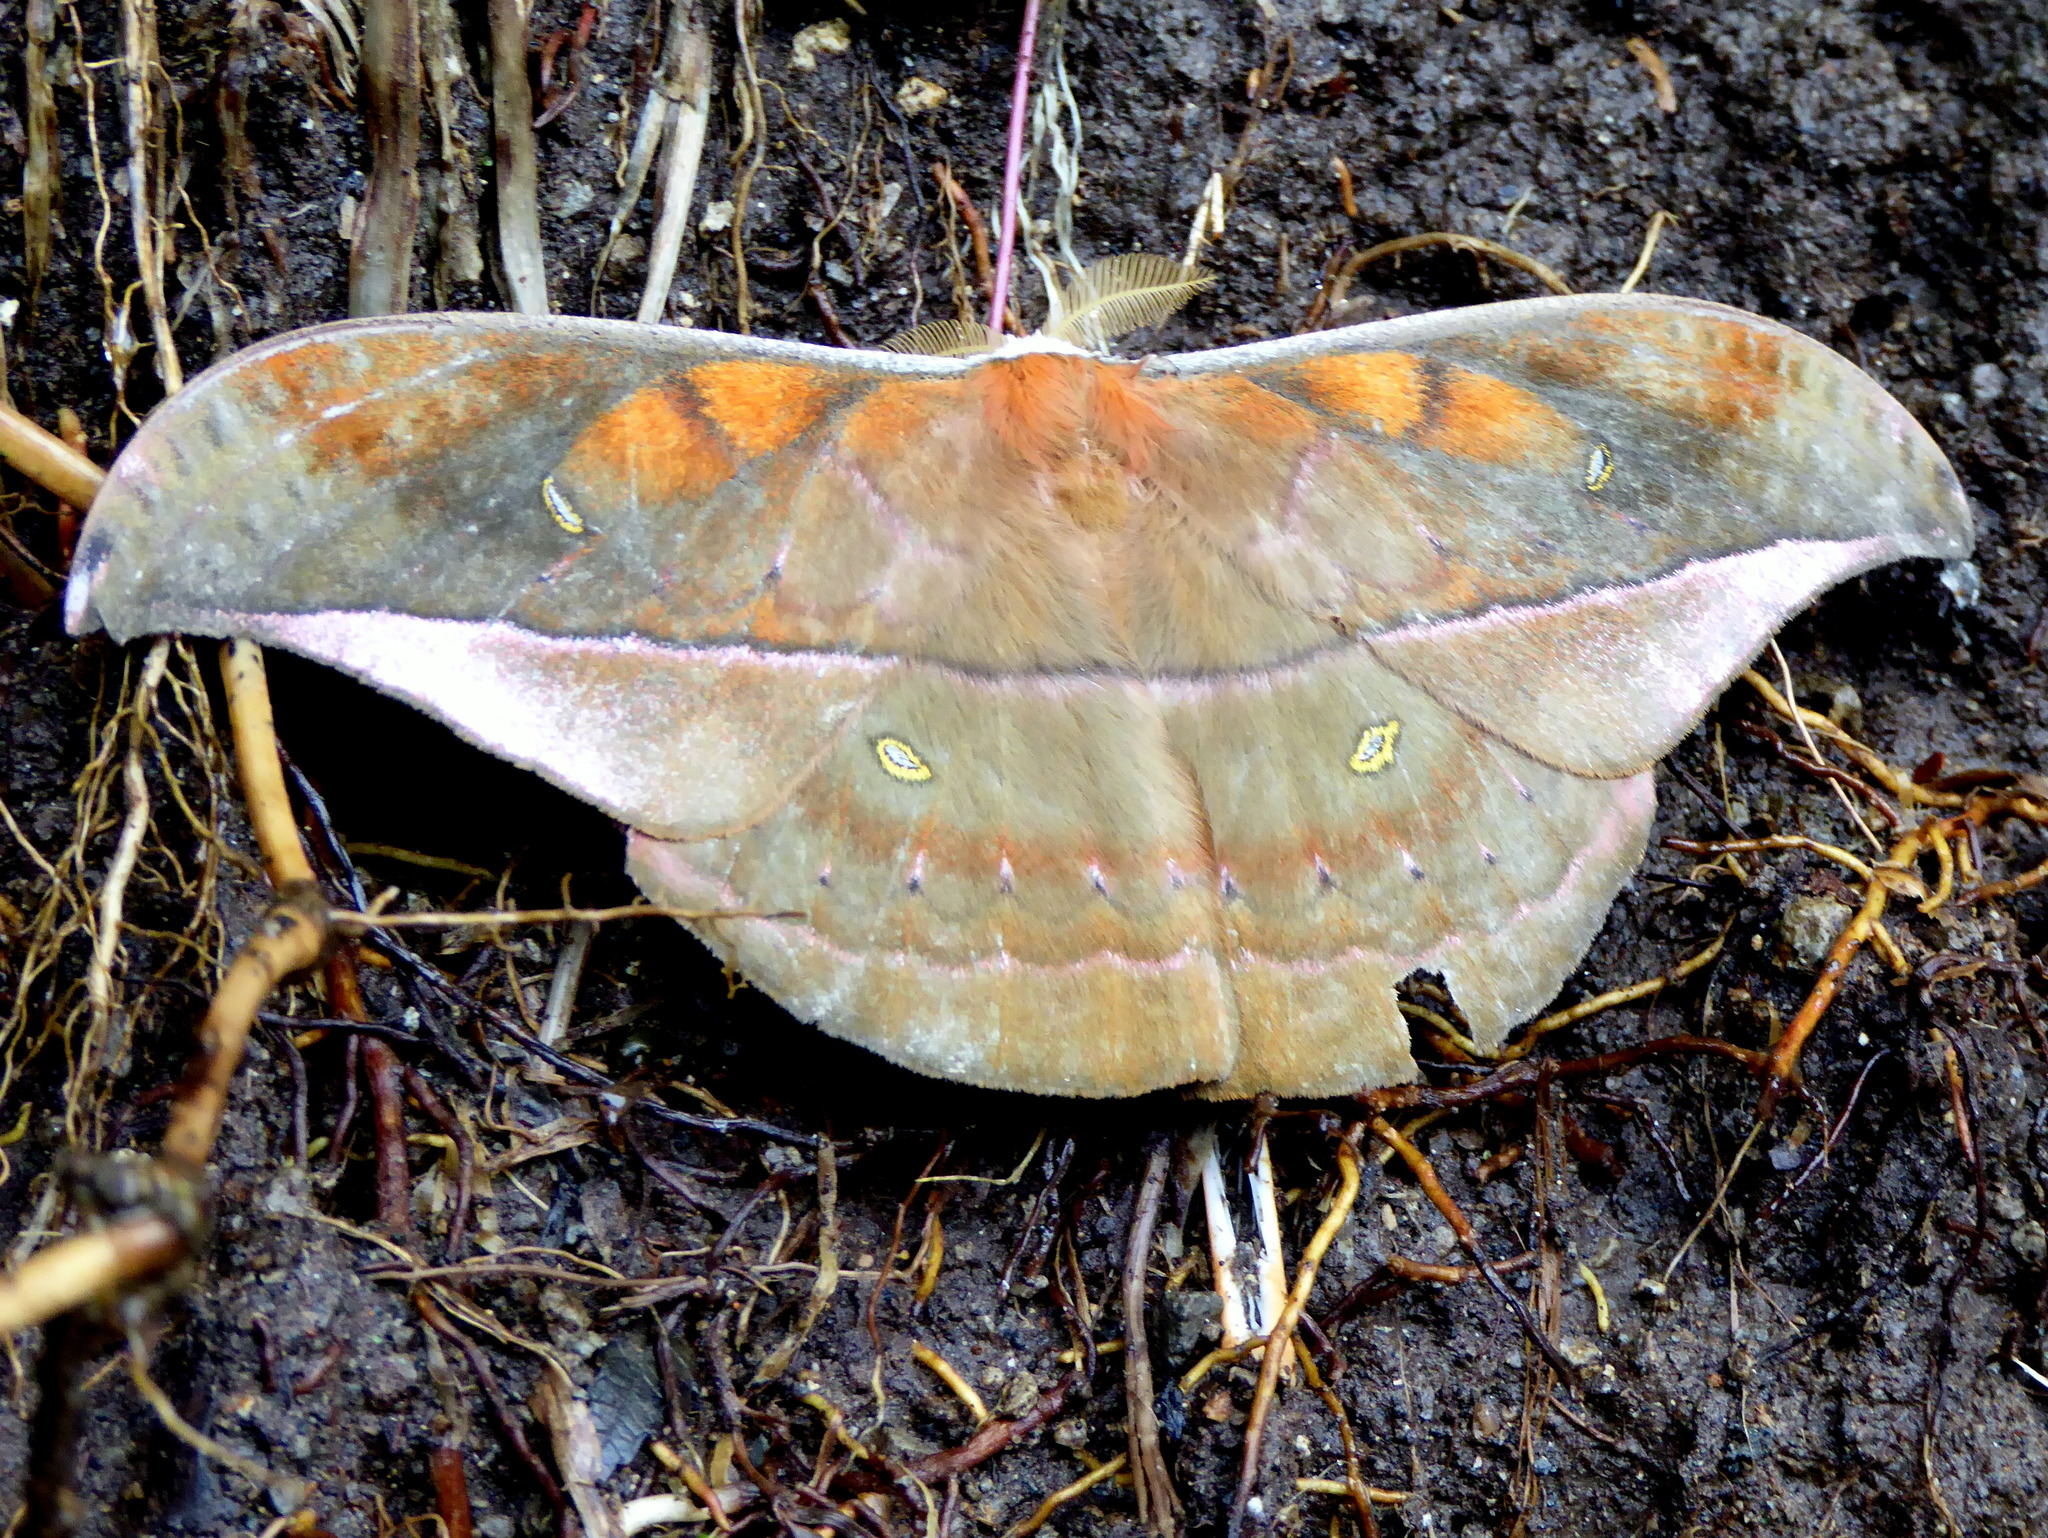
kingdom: Animalia
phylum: Arthropoda
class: Insecta
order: Lepidoptera
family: Saturniidae
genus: Copaxa
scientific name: Copaxa moinieri
